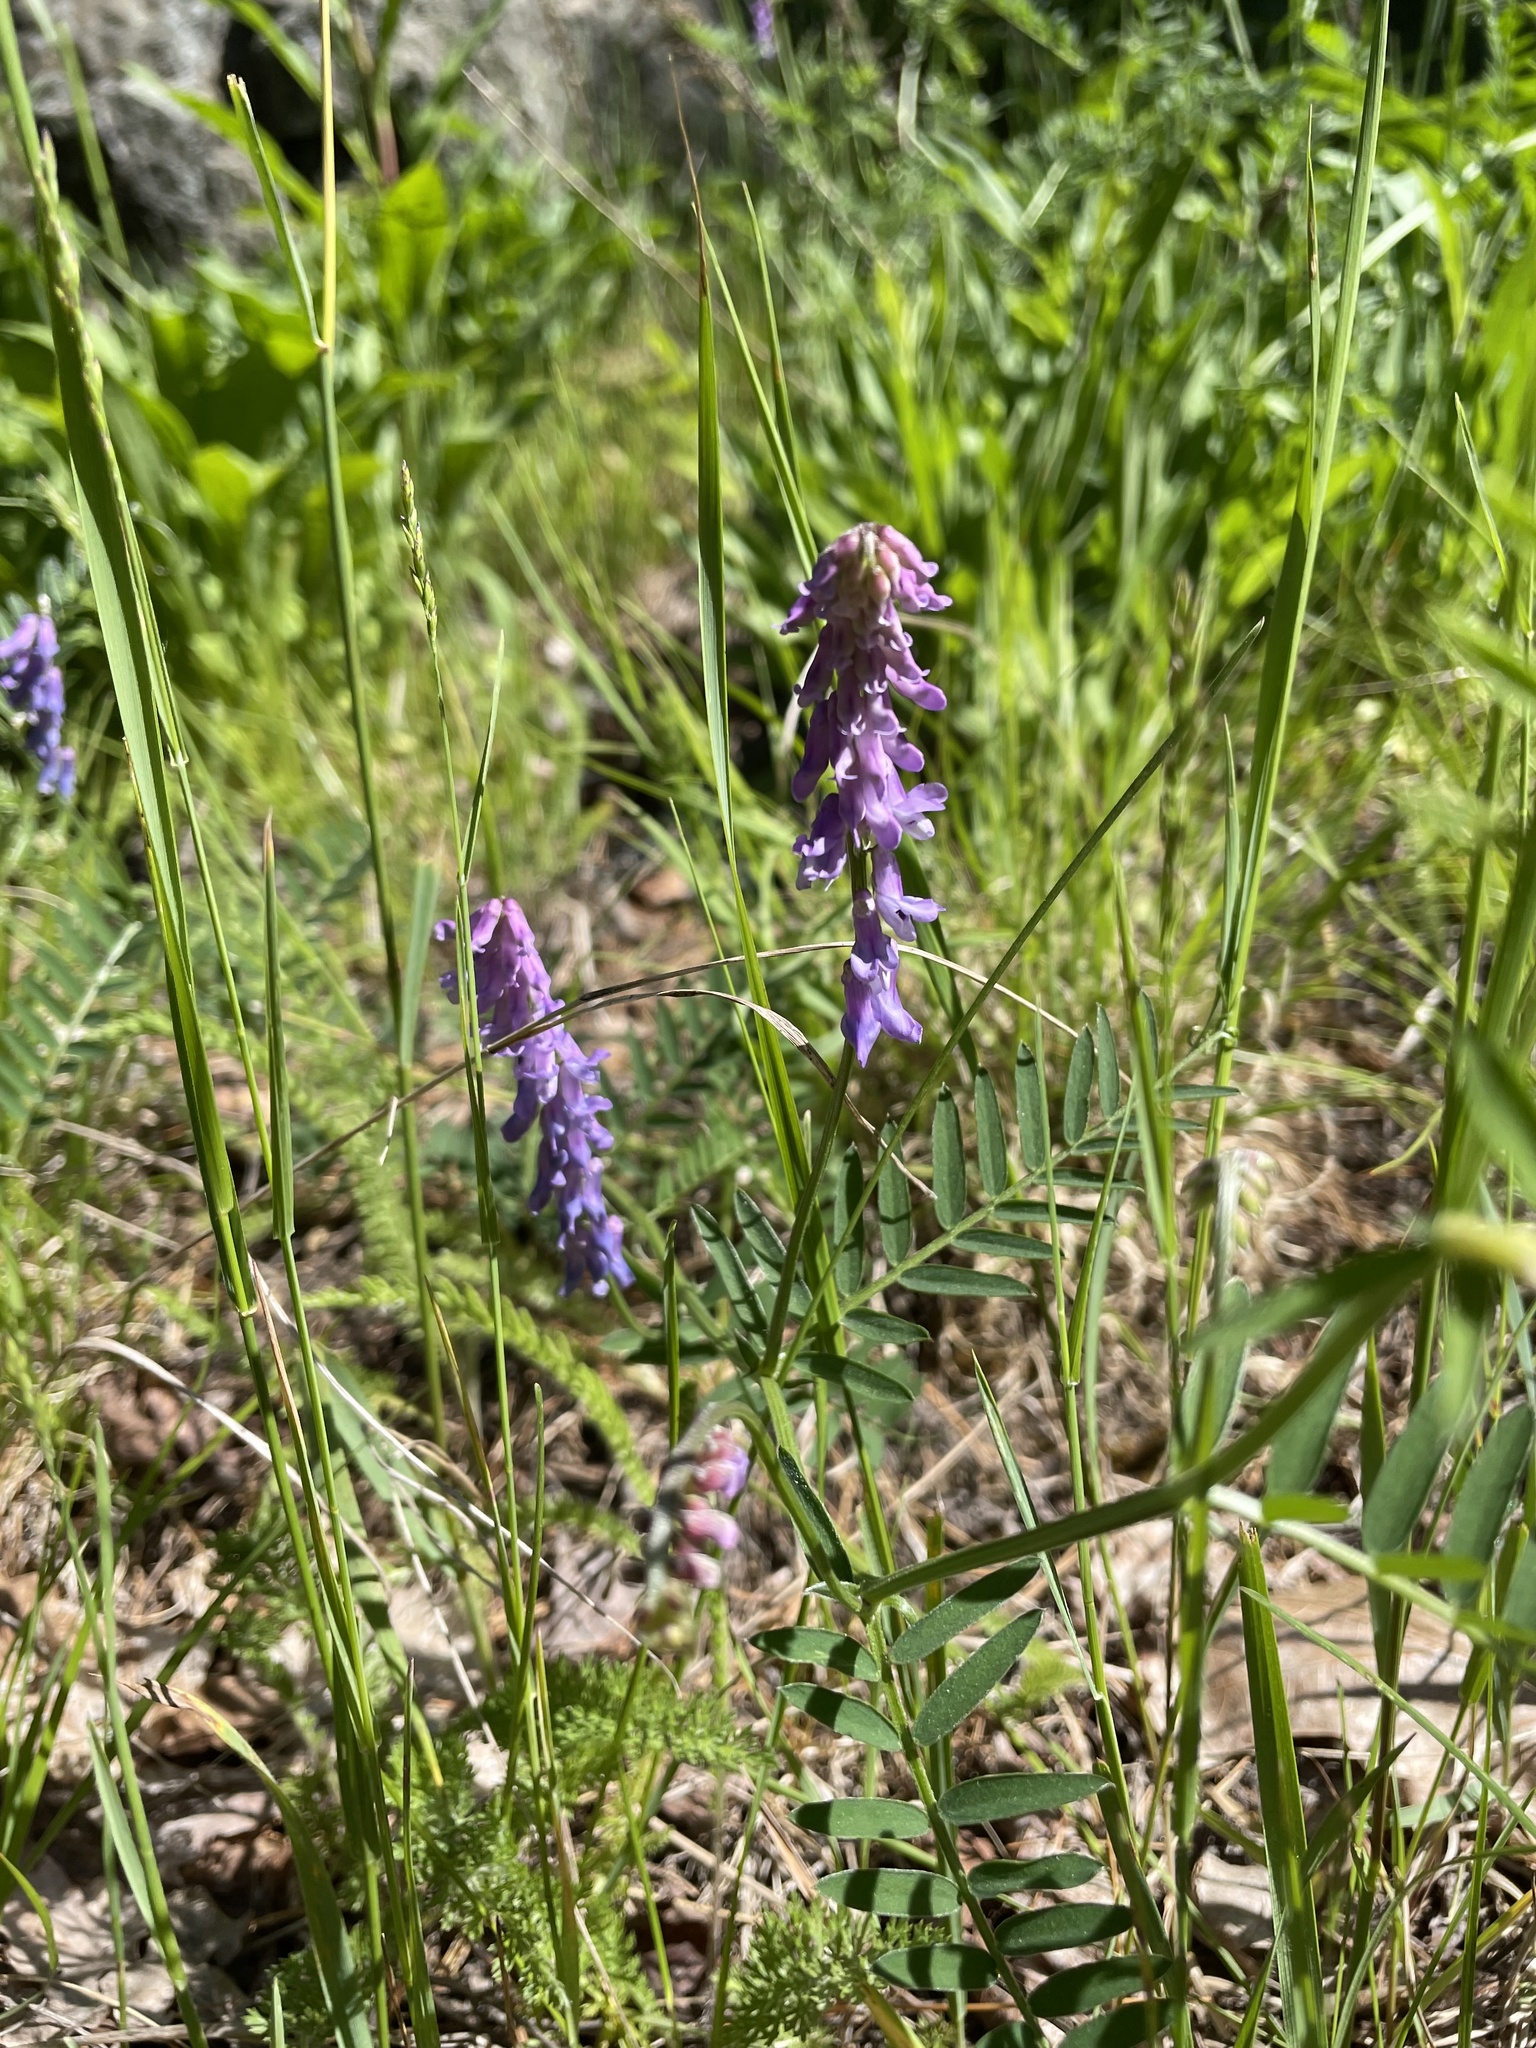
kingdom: Plantae
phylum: Tracheophyta
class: Magnoliopsida
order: Fabales
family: Fabaceae
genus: Vicia
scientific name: Vicia cracca
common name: Bird vetch
